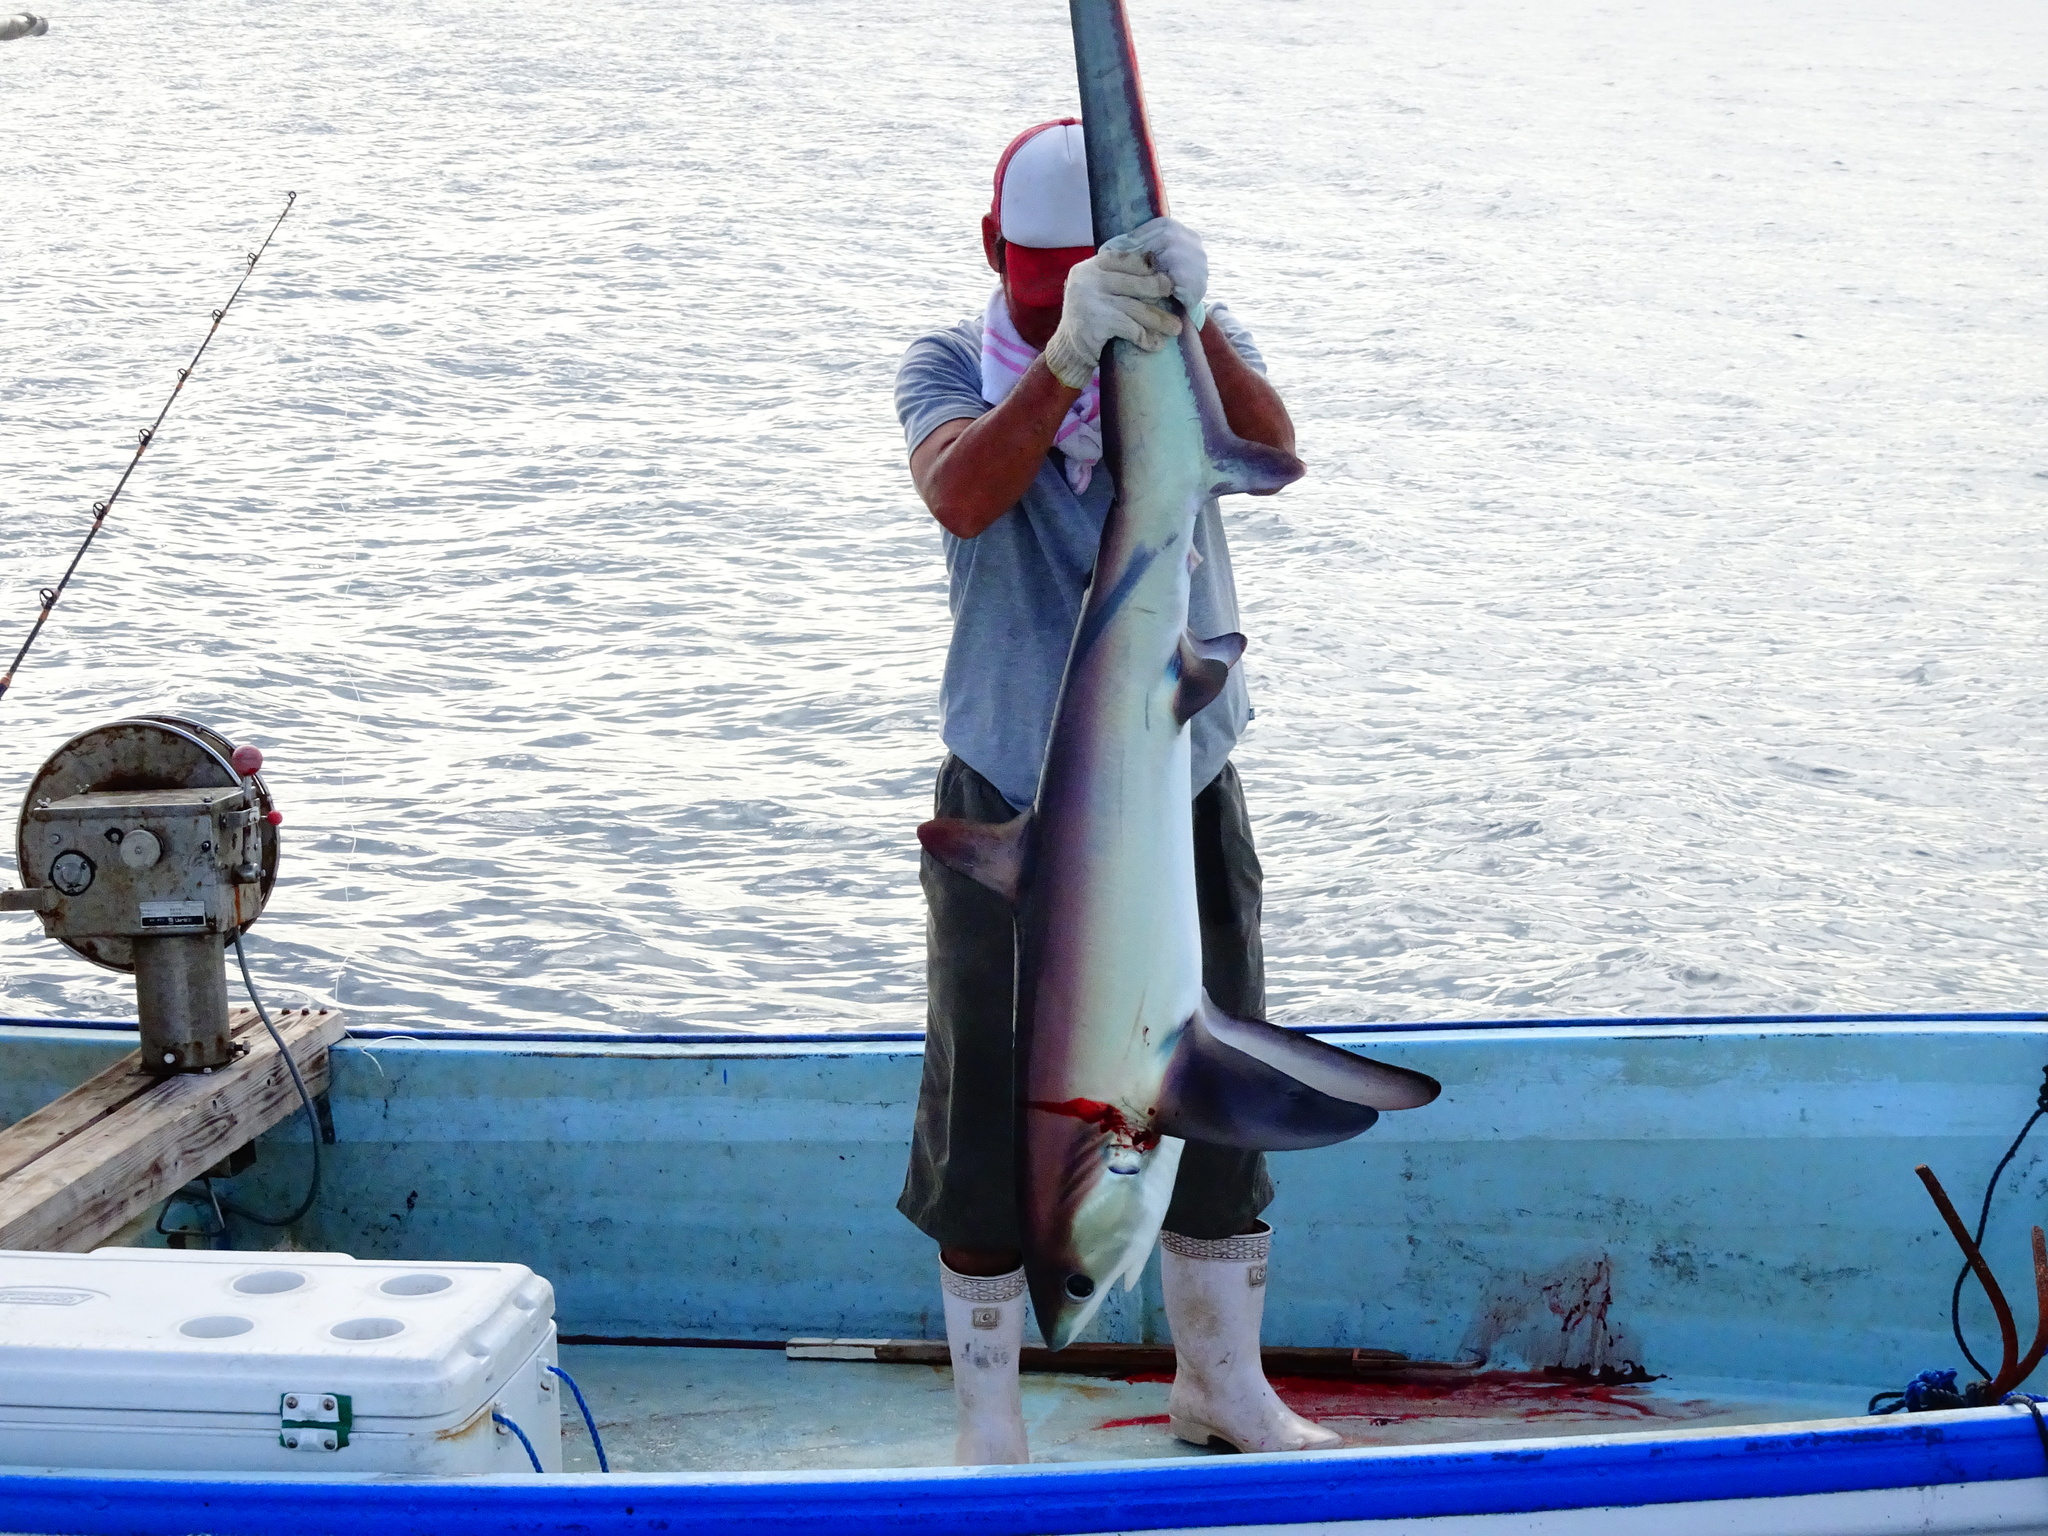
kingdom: Animalia
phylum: Chordata
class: Elasmobranchii
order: Lamniformes
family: Alopiidae
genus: Alopias
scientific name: Alopias pelagicus
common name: Pelagic thresher
